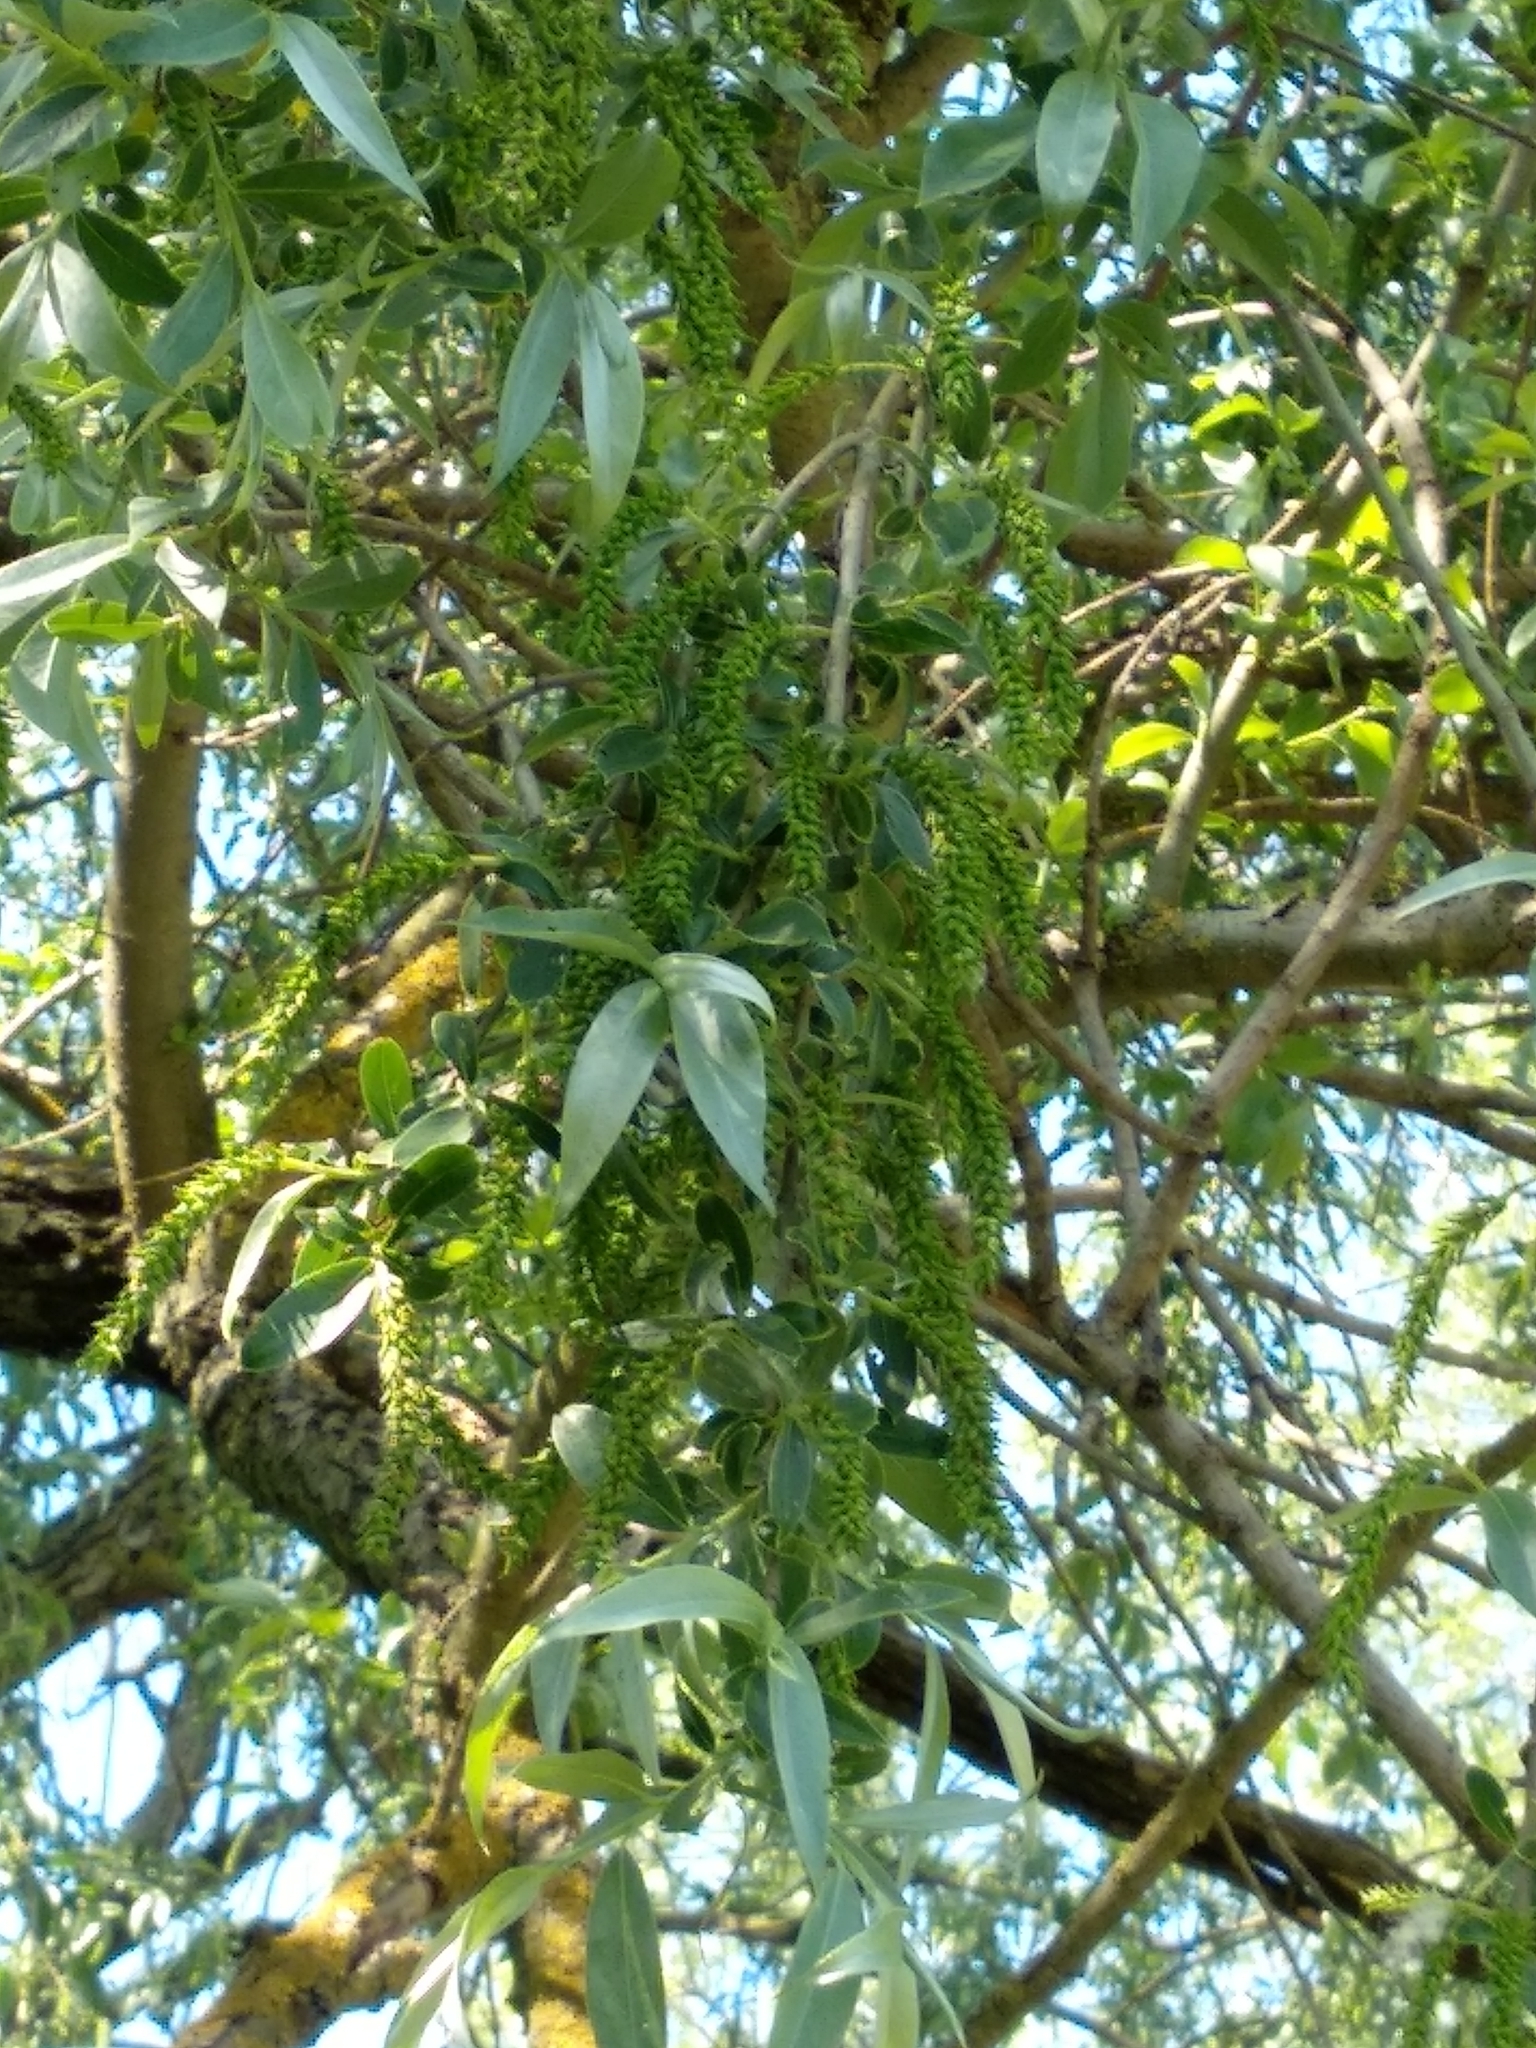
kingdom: Plantae
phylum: Tracheophyta
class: Magnoliopsida
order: Malpighiales
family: Salicaceae
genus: Salix
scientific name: Salix alba
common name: White willow
